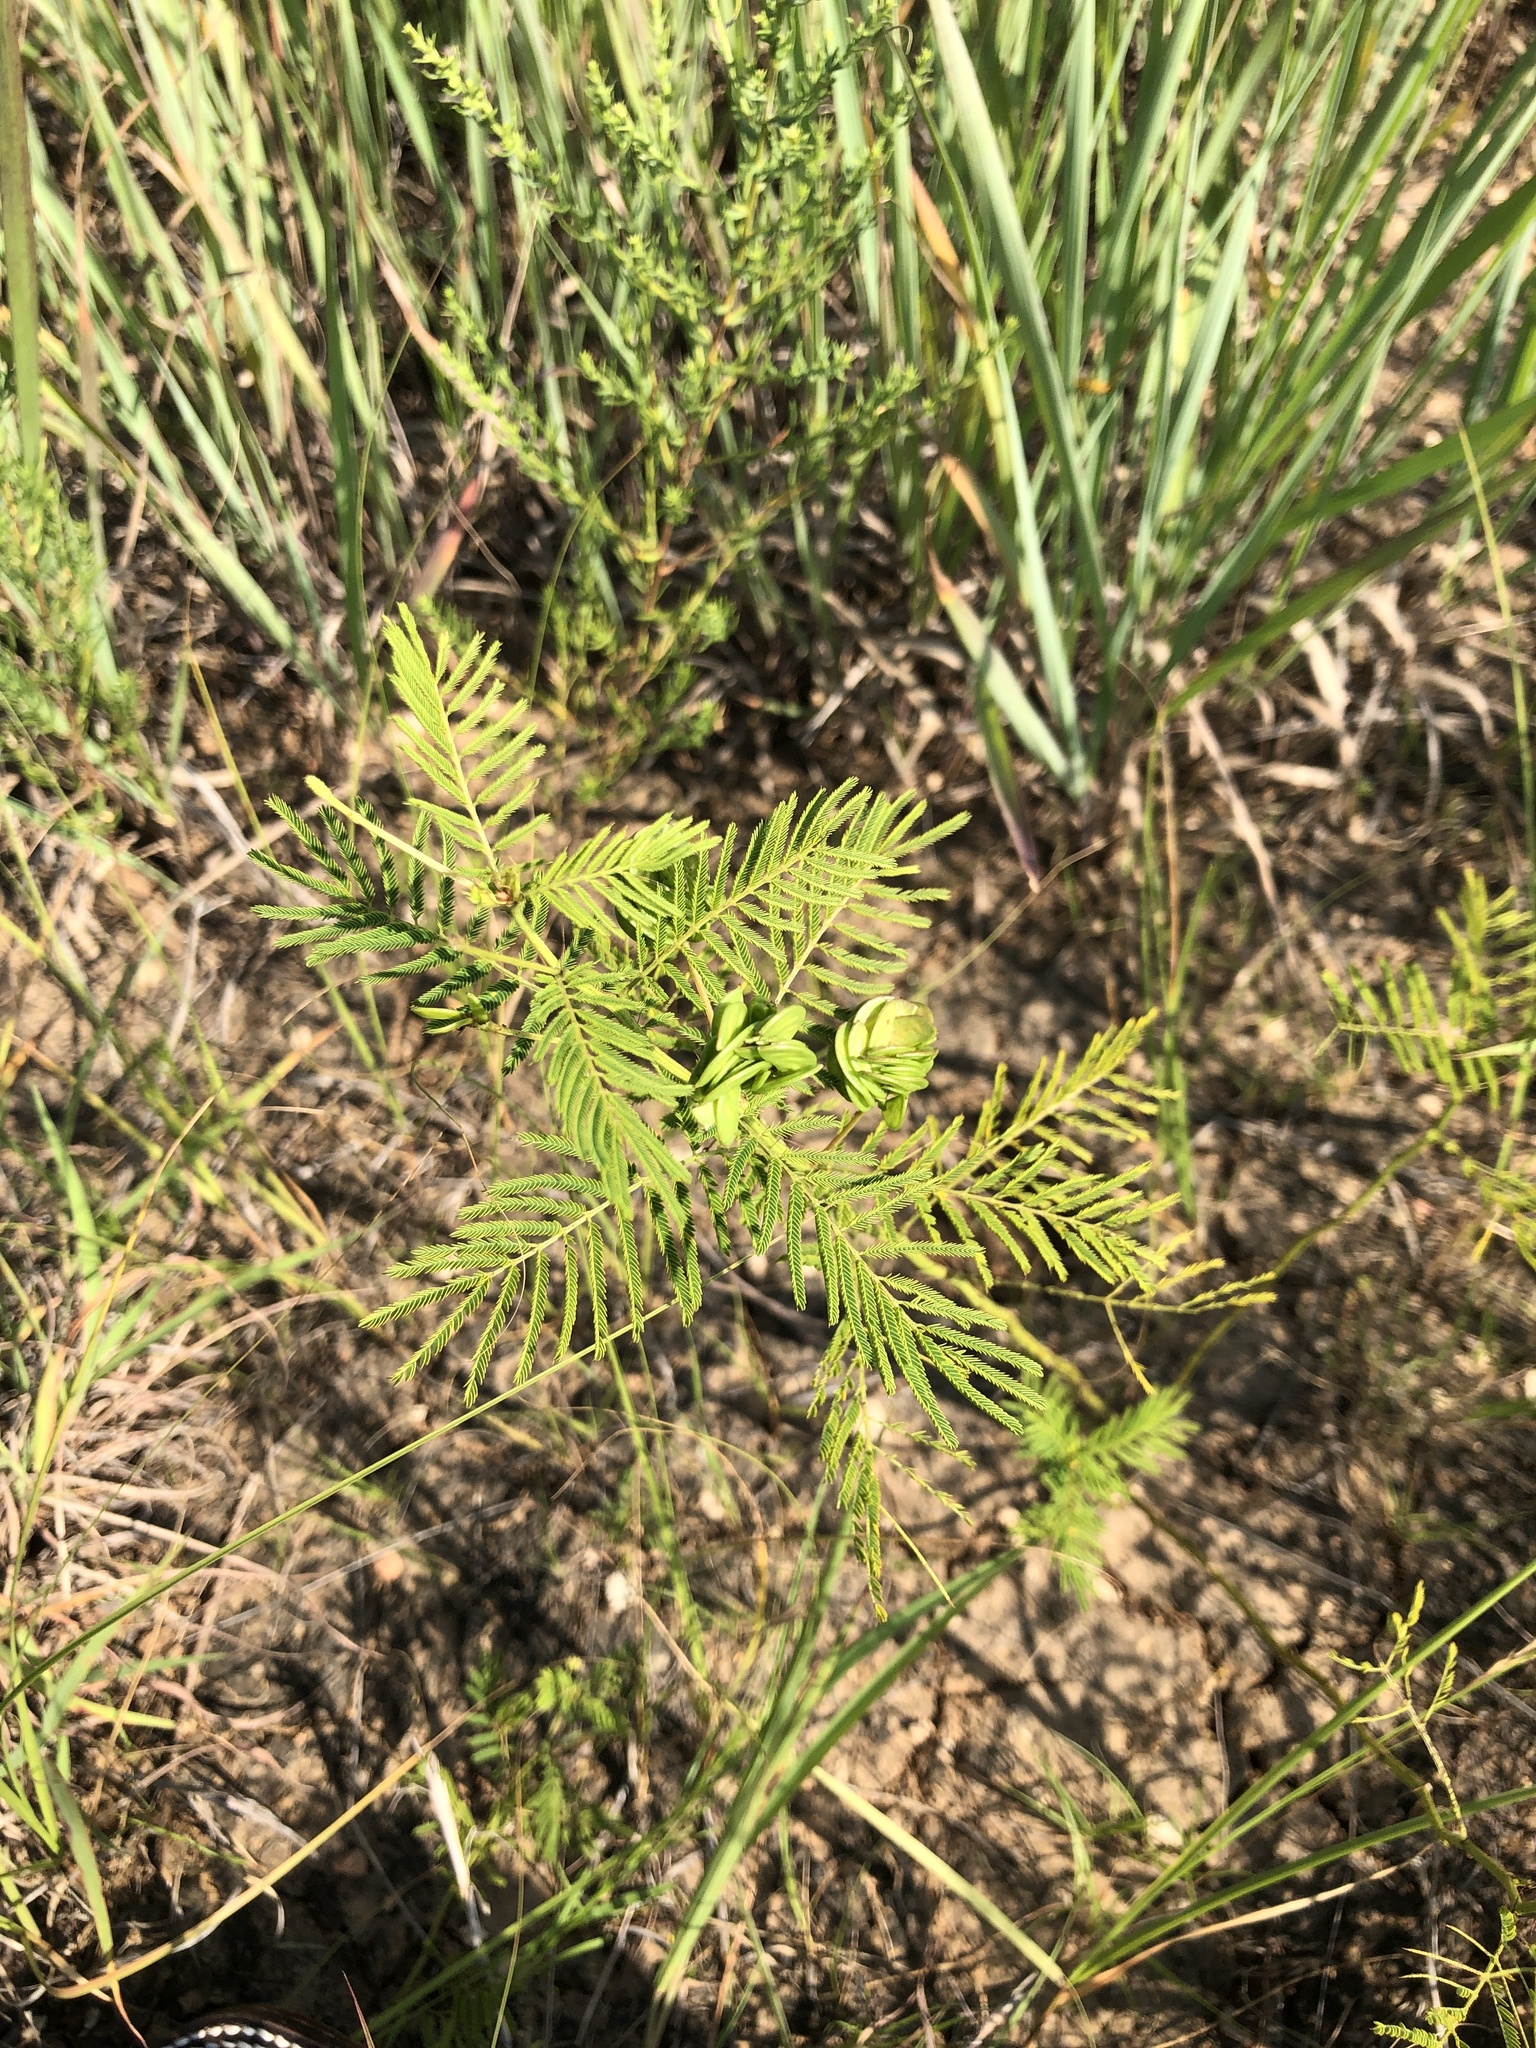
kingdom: Plantae
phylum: Tracheophyta
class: Magnoliopsida
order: Fabales
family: Fabaceae
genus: Desmanthus
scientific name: Desmanthus illinoensis
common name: Illinois bundle-flower
